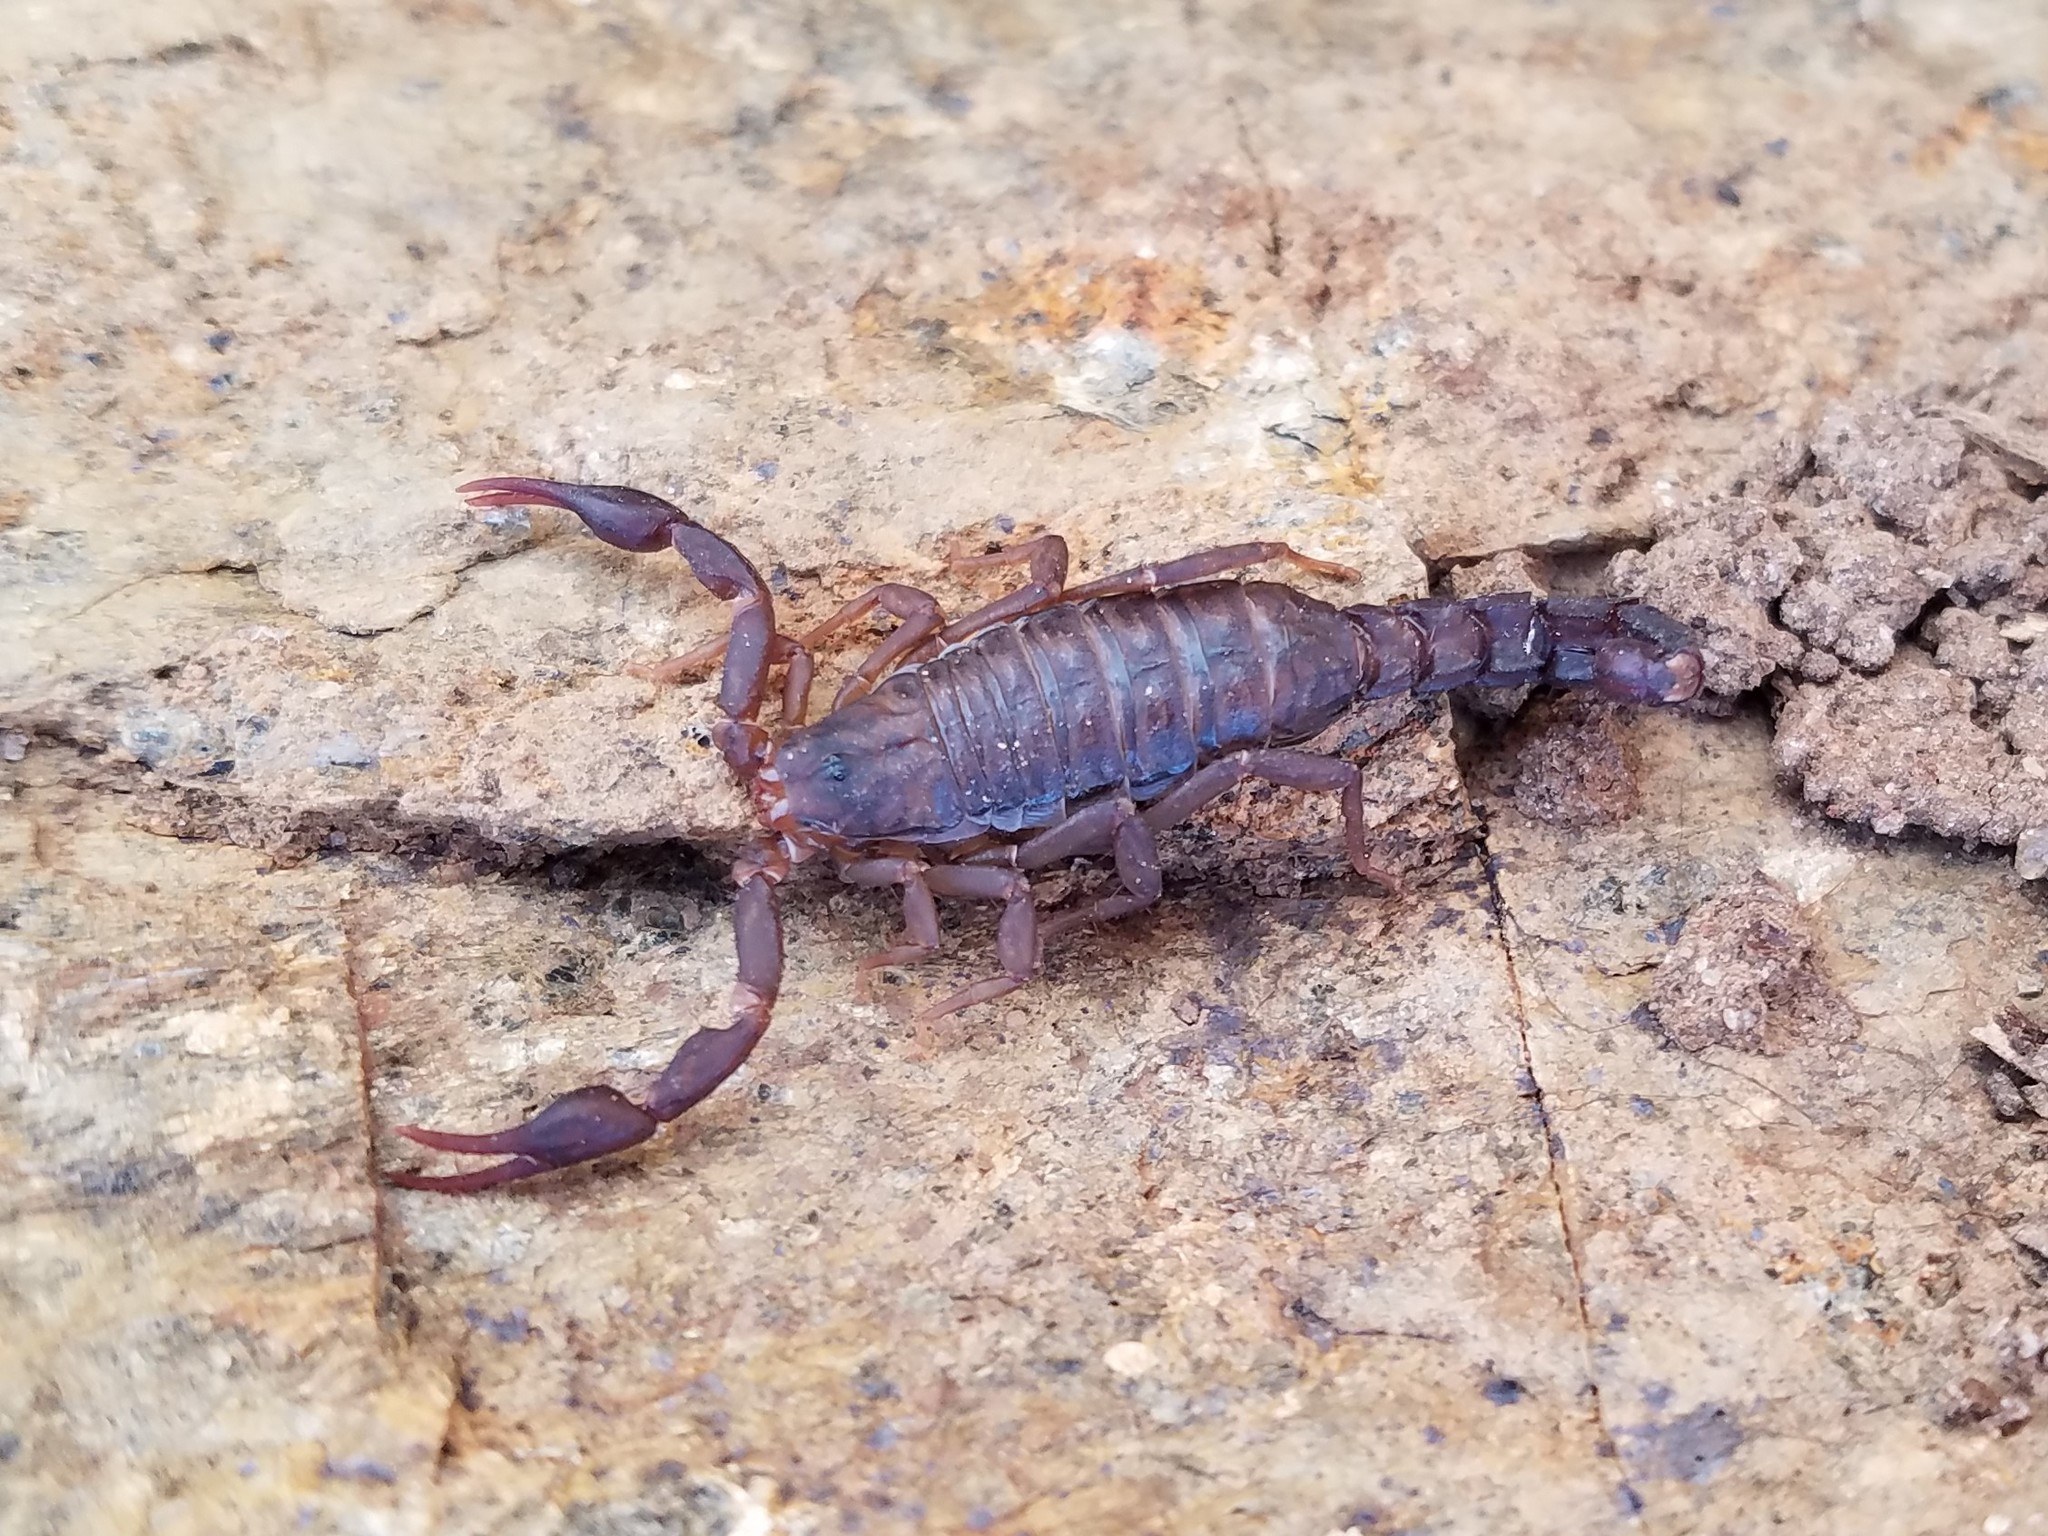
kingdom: Animalia
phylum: Arthropoda
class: Arachnida
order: Scorpiones
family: Vaejovidae
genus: Vaejovis
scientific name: Vaejovis carolinianus
